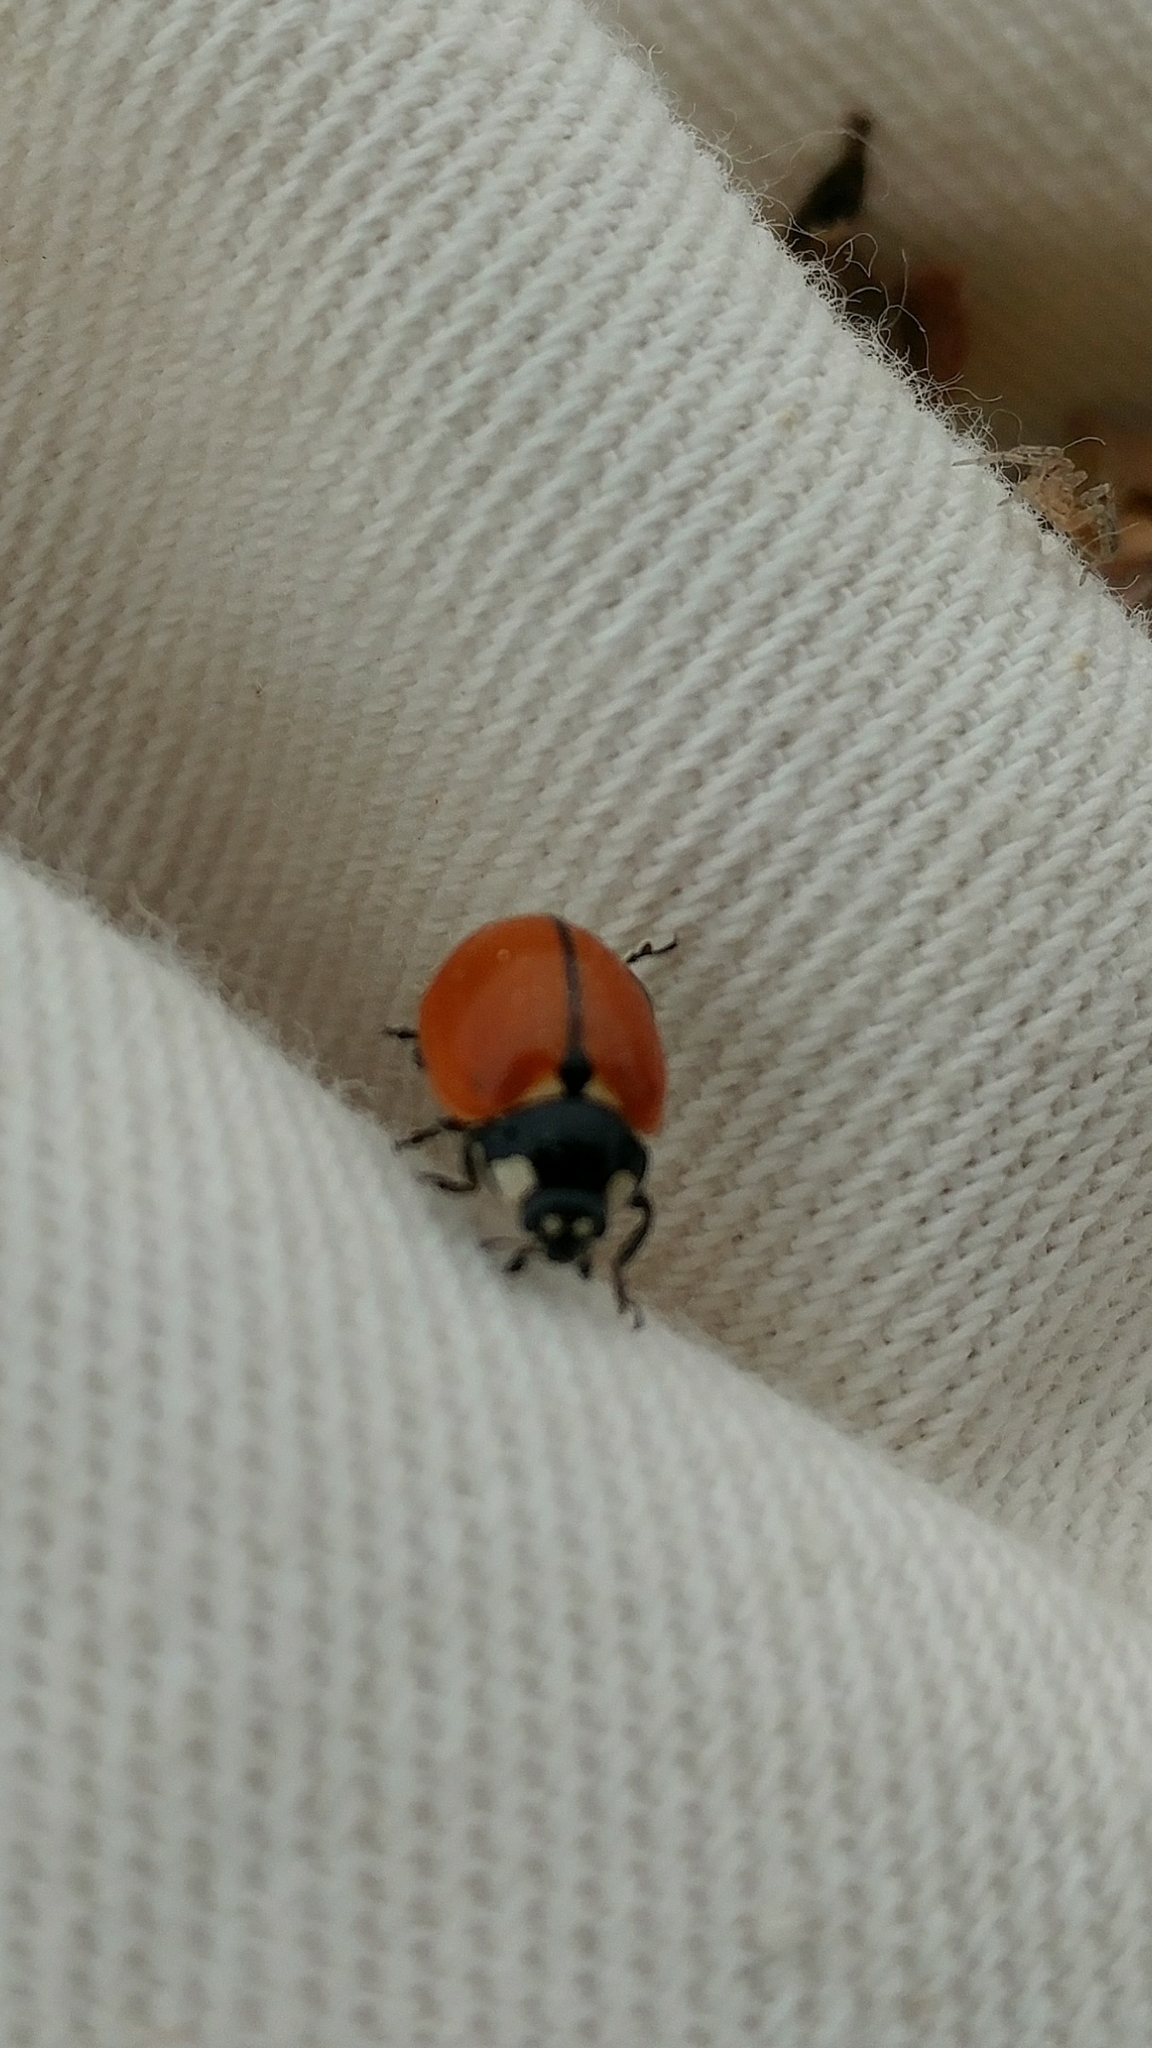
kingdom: Animalia
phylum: Arthropoda
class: Insecta
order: Coleoptera
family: Coccinellidae
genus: Coccinella
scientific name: Coccinella californica
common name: Lady beetle
